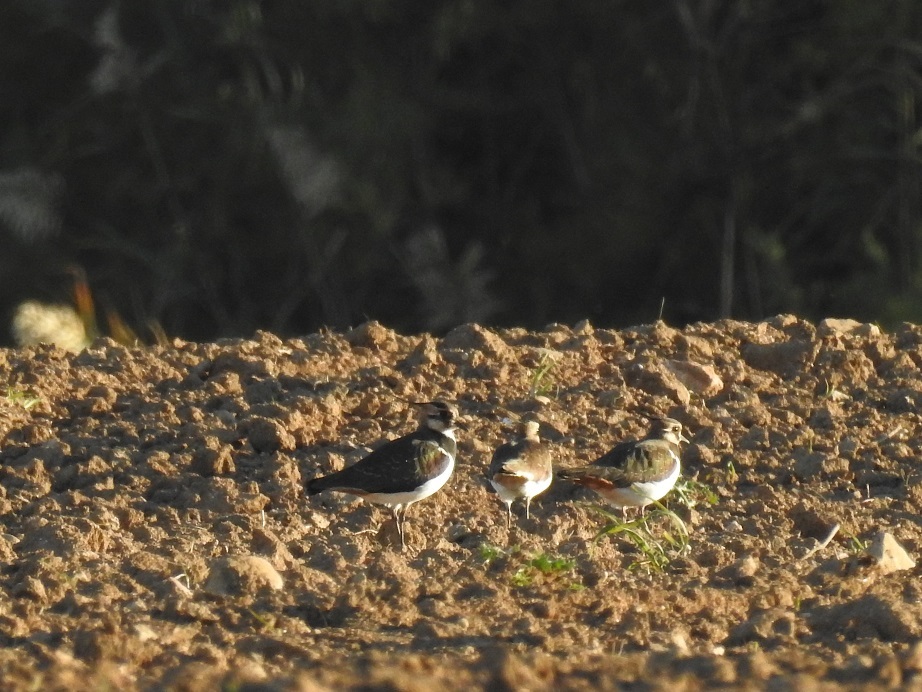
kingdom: Animalia
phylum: Chordata
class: Aves
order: Charadriiformes
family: Charadriidae
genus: Vanellus
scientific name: Vanellus vanellus
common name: Northern lapwing
